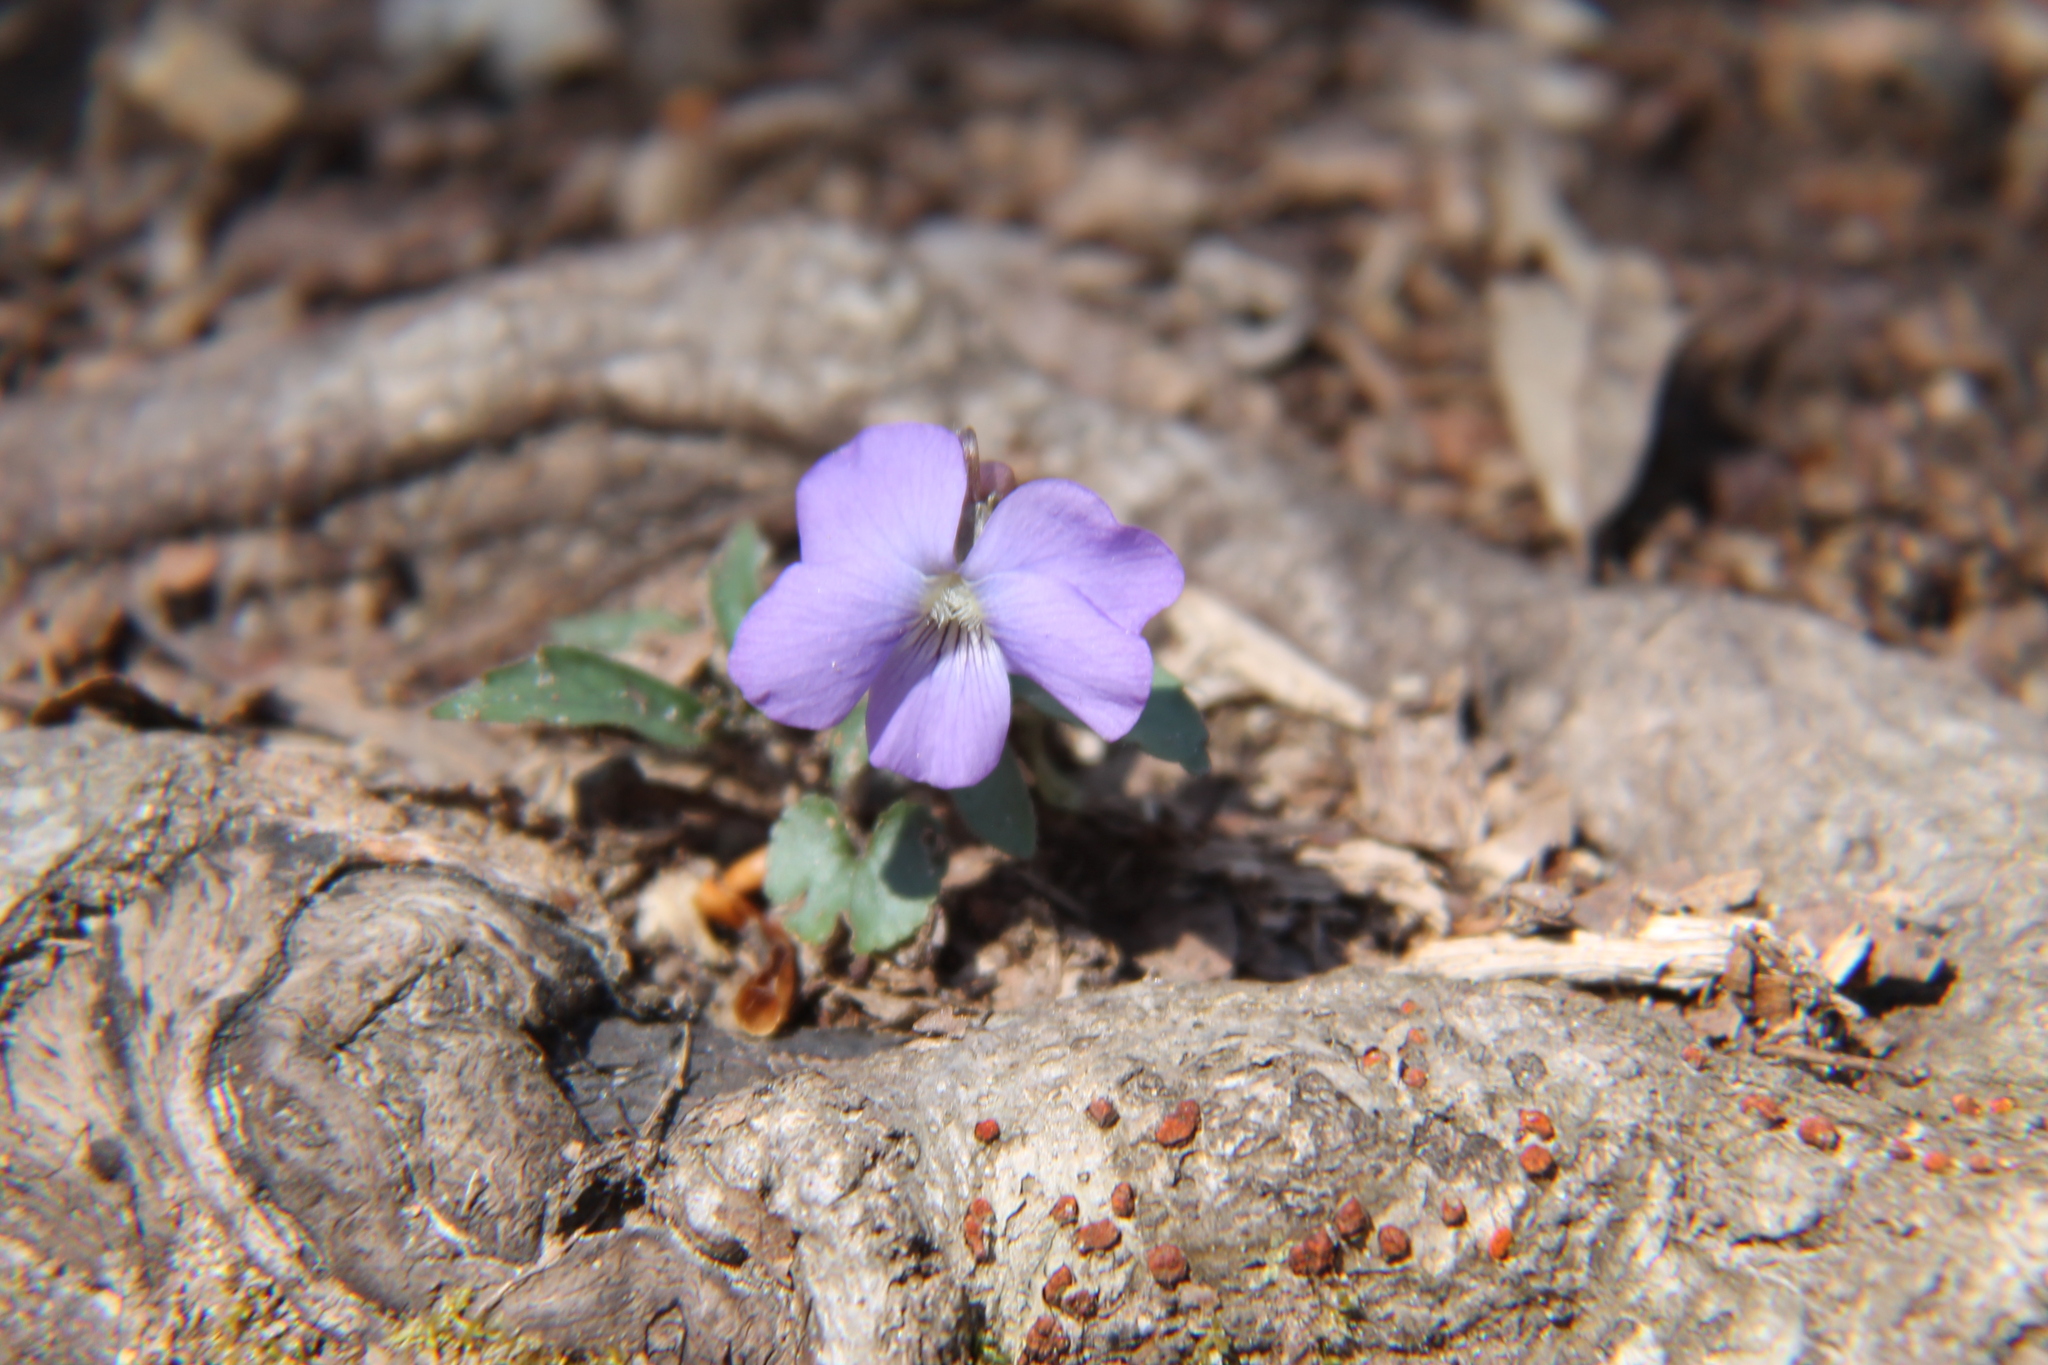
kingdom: Plantae
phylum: Tracheophyta
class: Magnoliopsida
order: Malpighiales
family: Violaceae
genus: Viola
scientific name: Viola palmata
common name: Early blue violet
